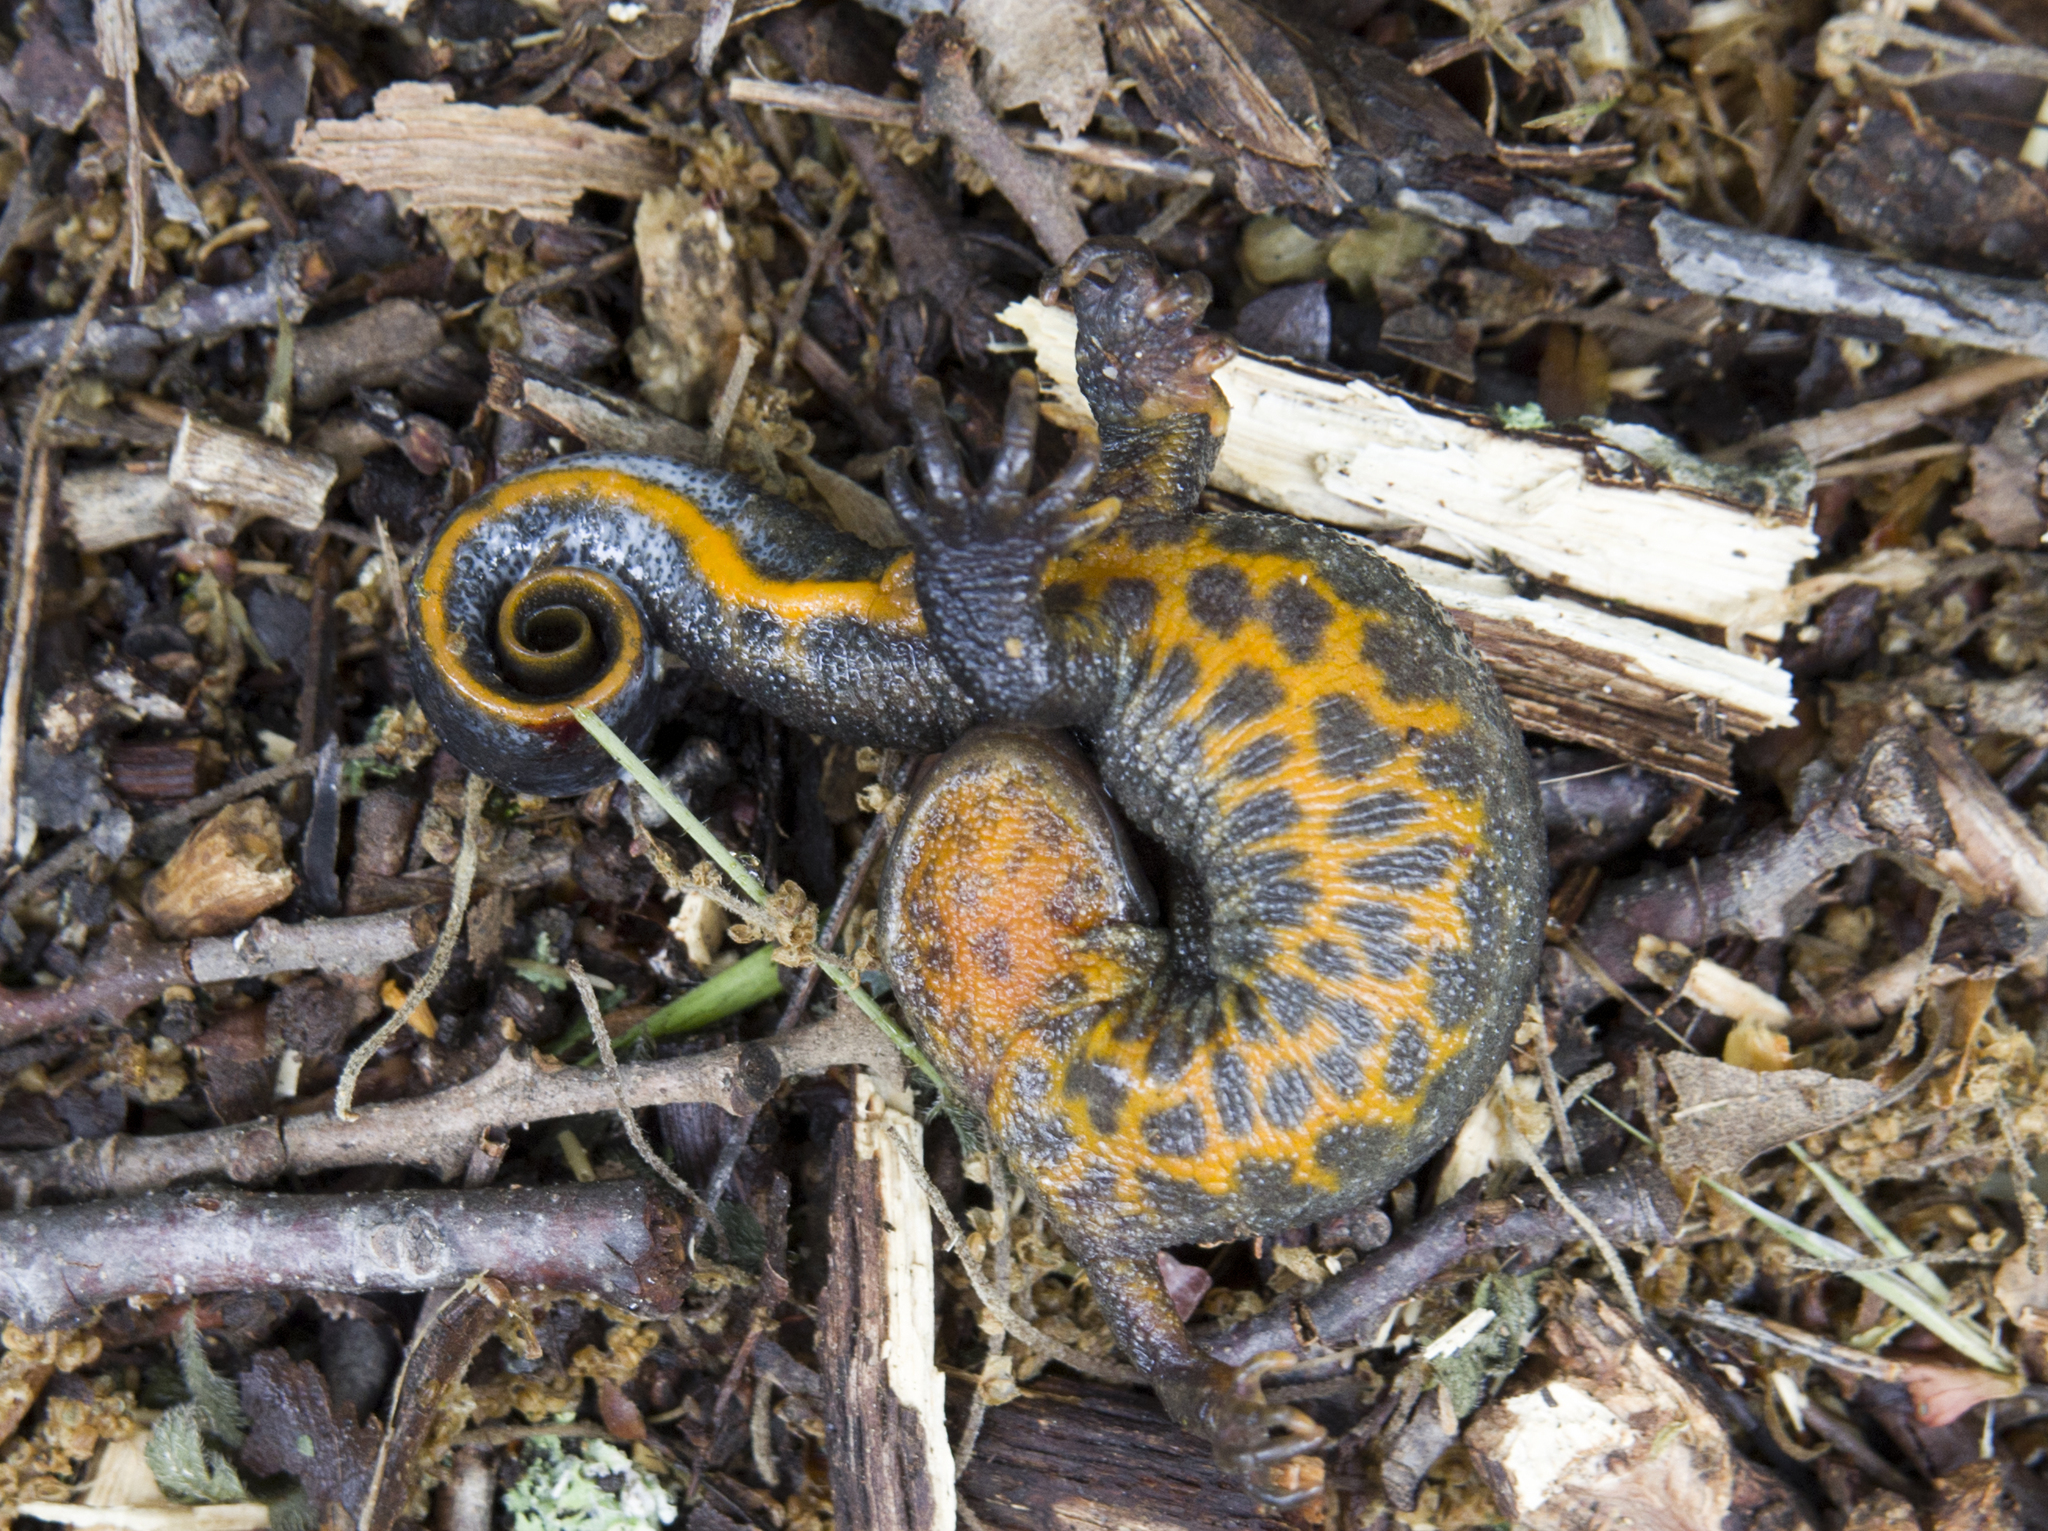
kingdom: Animalia
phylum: Chordata
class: Amphibia
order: Caudata
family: Salamandridae
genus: Triturus
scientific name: Triturus ivanbureschi
